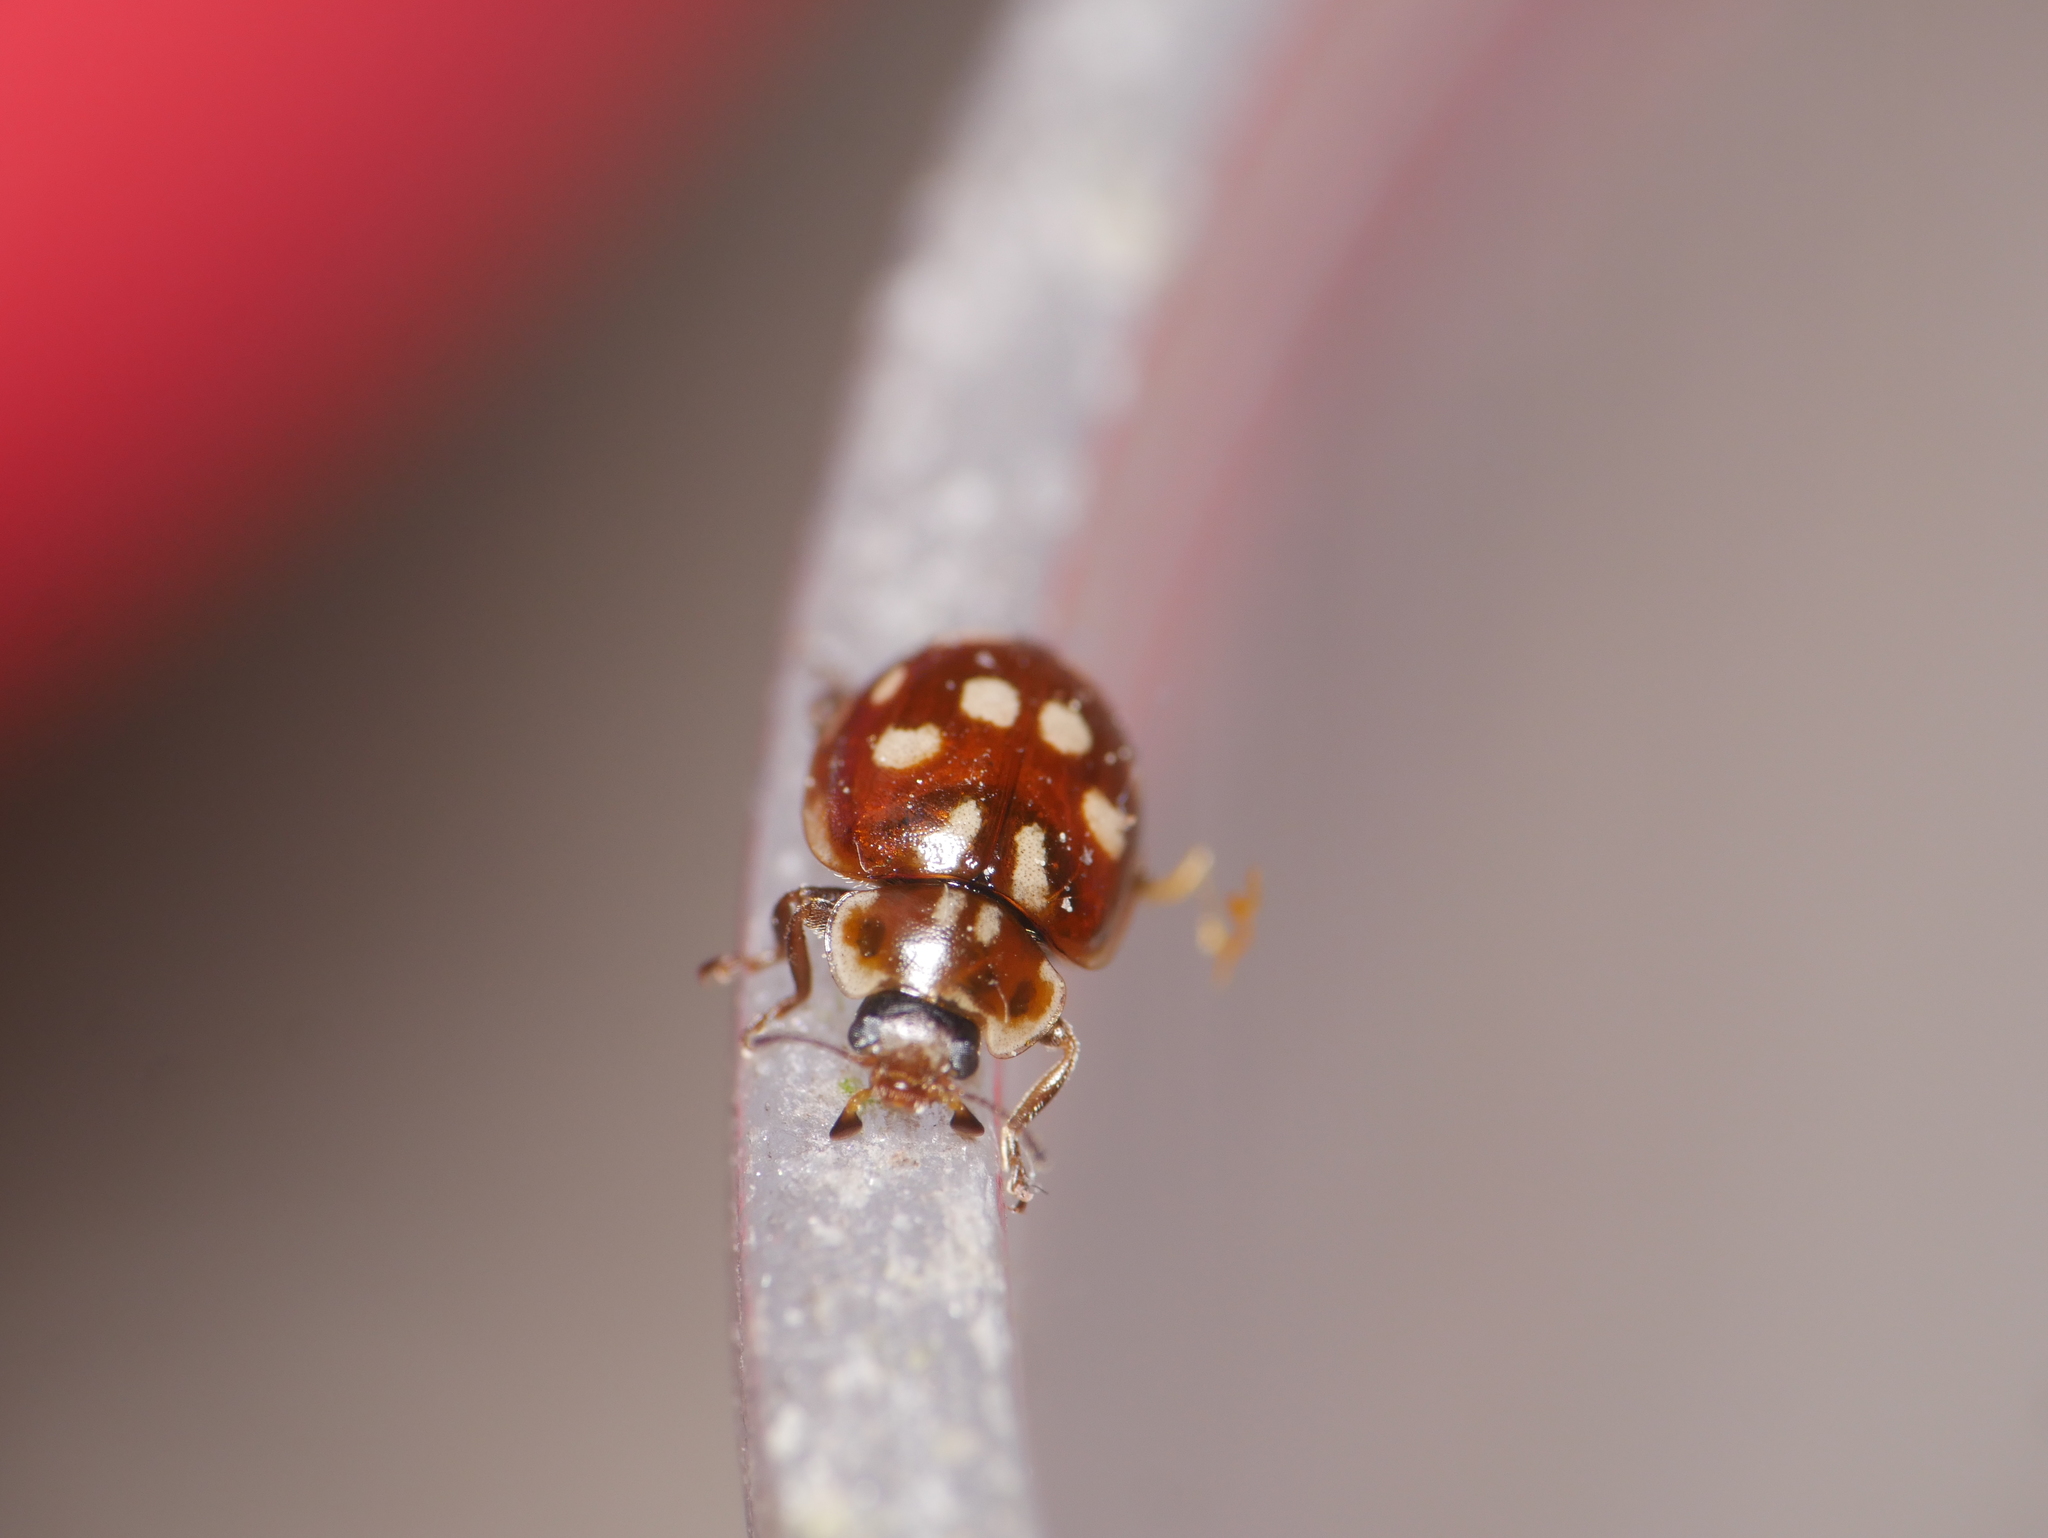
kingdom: Animalia
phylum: Arthropoda
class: Insecta
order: Coleoptera
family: Coccinellidae
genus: Myrrha
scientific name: Myrrha octodecimguttata
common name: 18-spot ladybird
